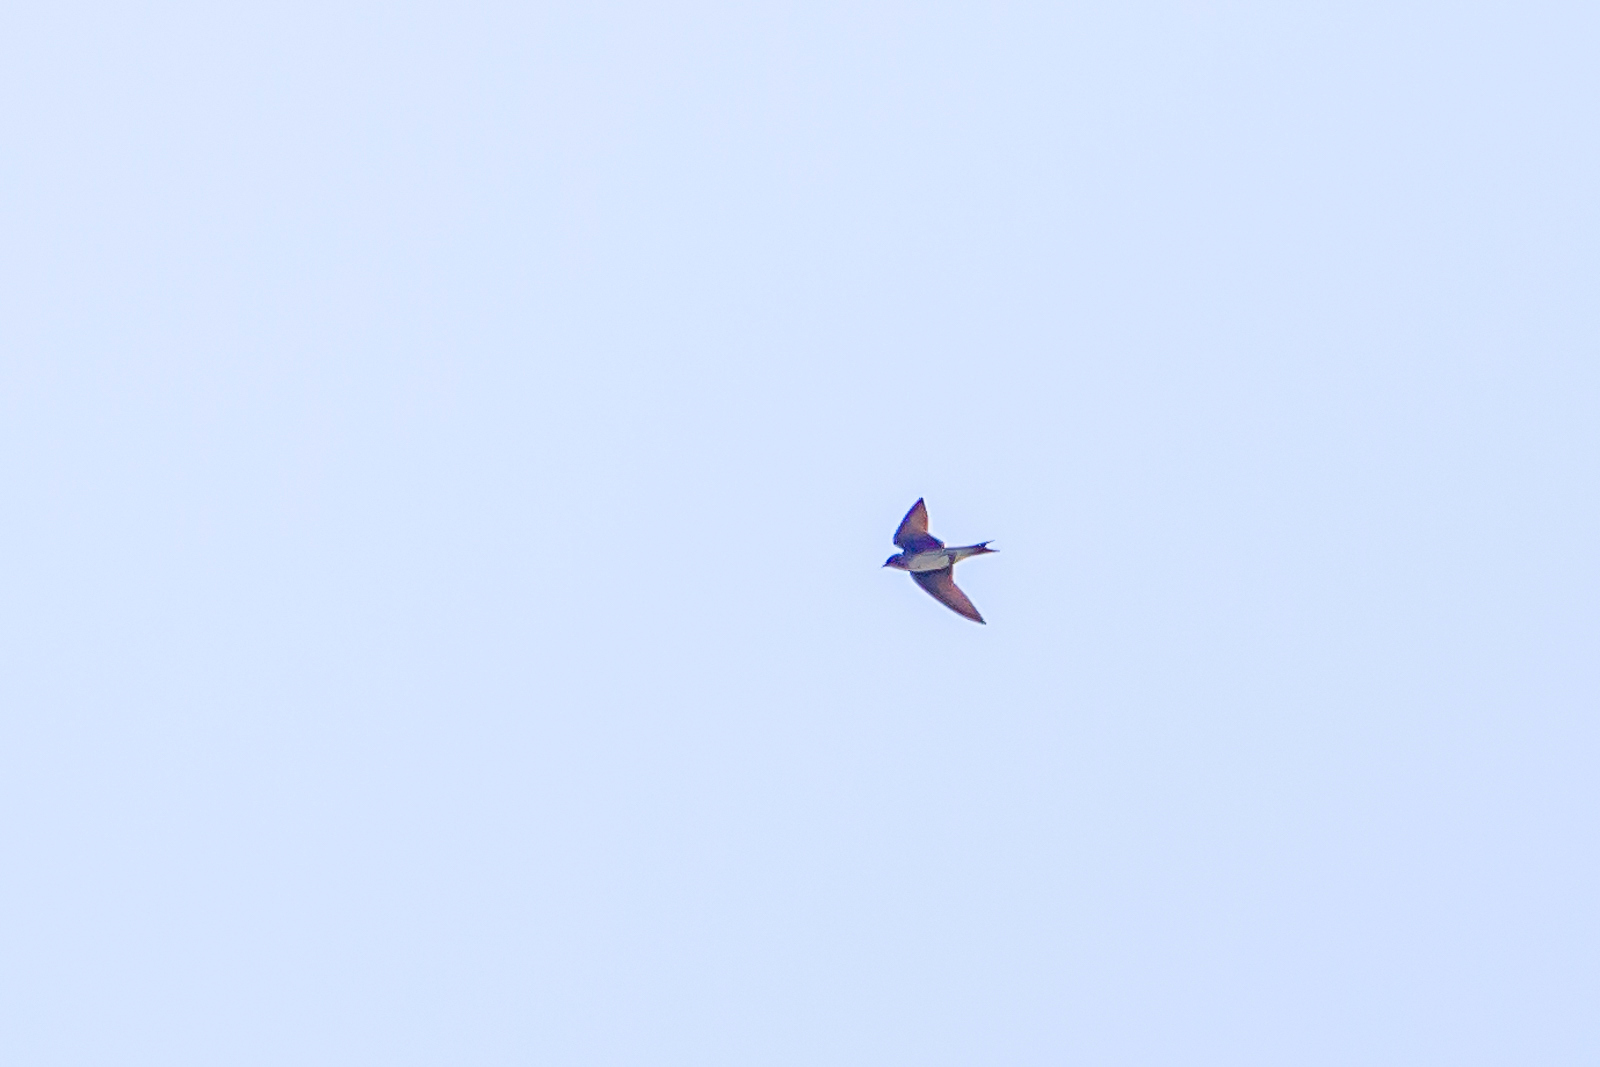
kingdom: Animalia
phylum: Chordata
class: Aves
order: Passeriformes
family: Hirundinidae
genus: Hirundo
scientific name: Hirundo rustica
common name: Barn swallow
